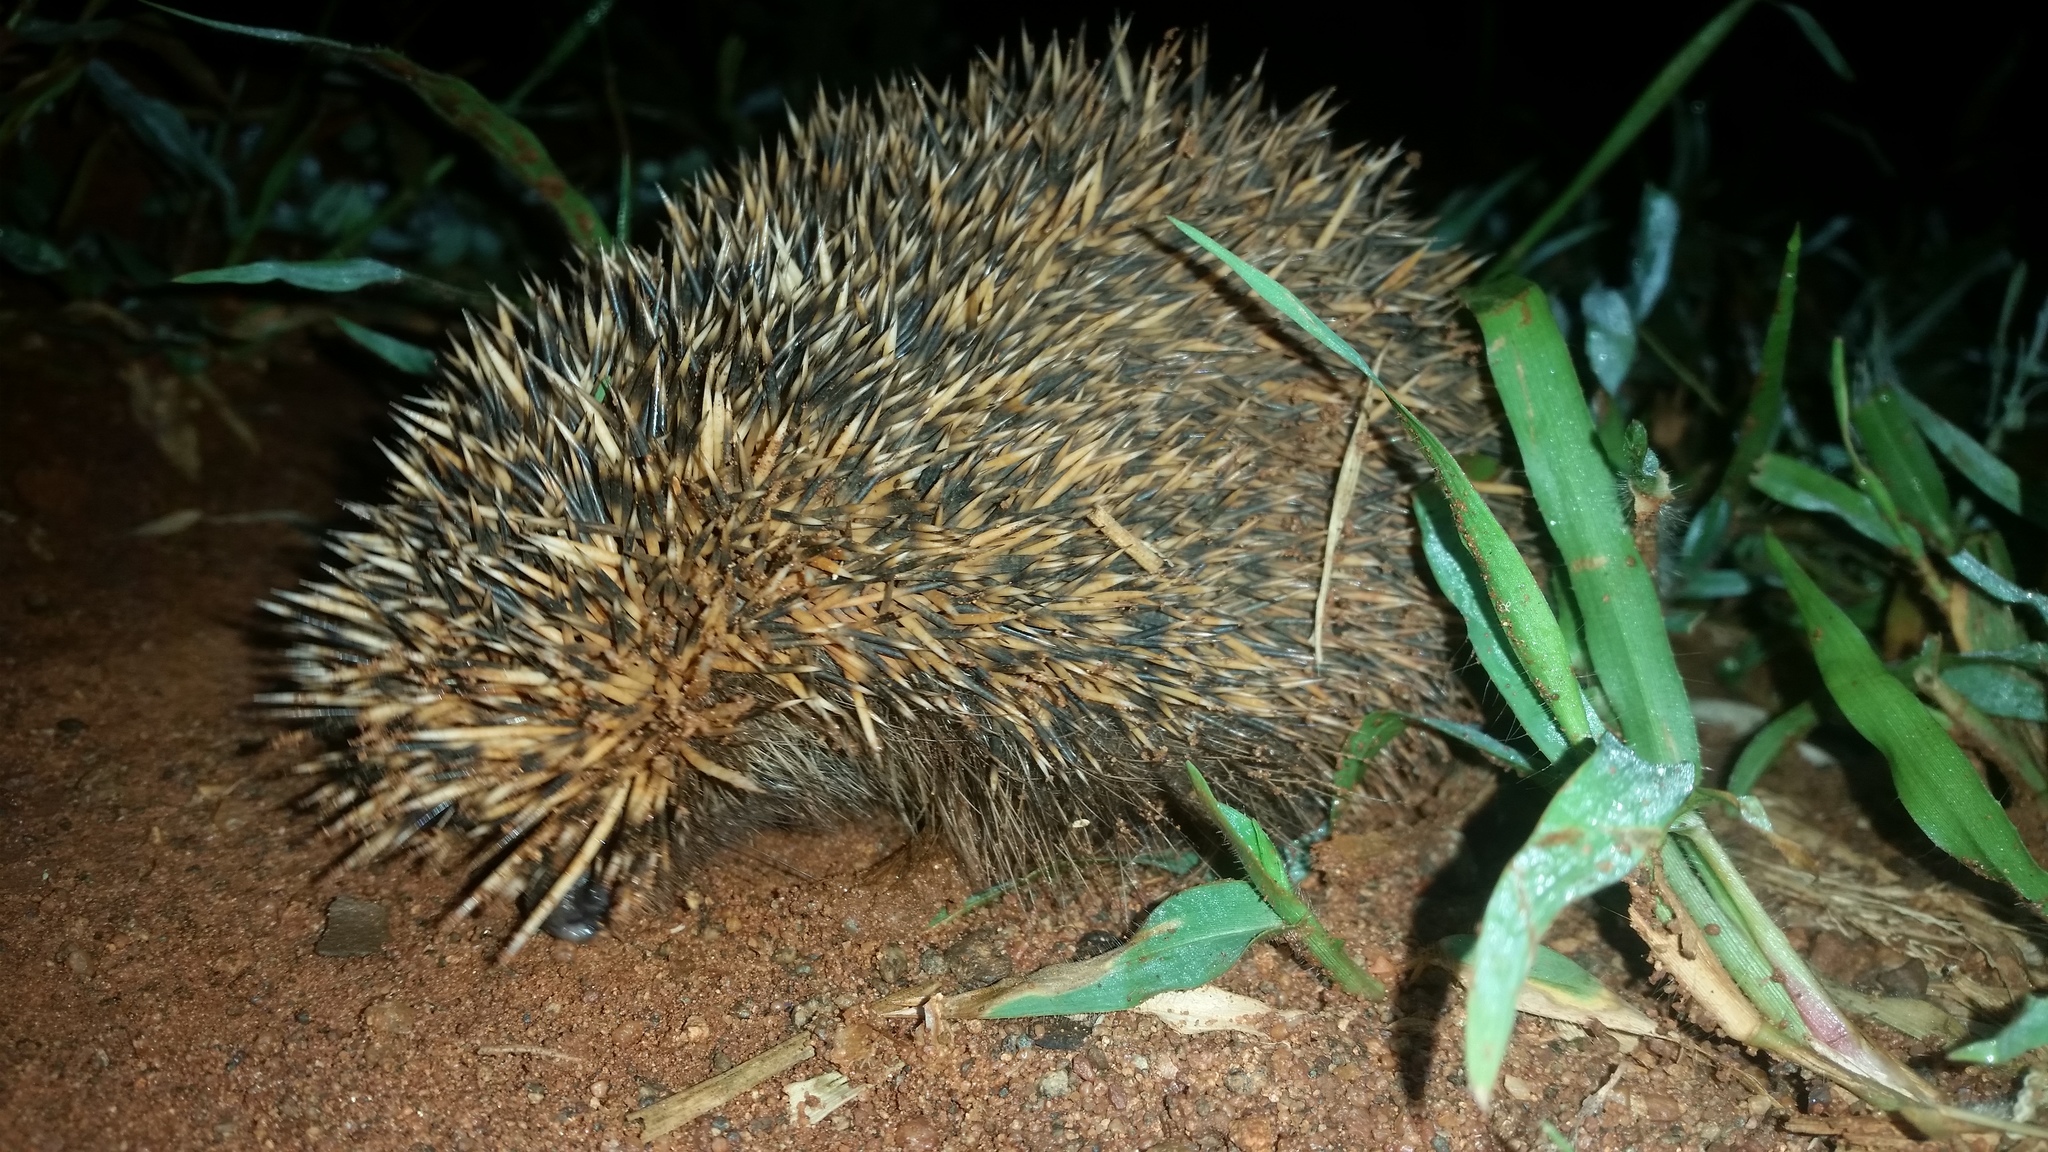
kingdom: Animalia
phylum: Chordata
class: Mammalia
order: Erinaceomorpha
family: Erinaceidae
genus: Atelerix
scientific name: Atelerix frontalis
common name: Southern african hedgehog
